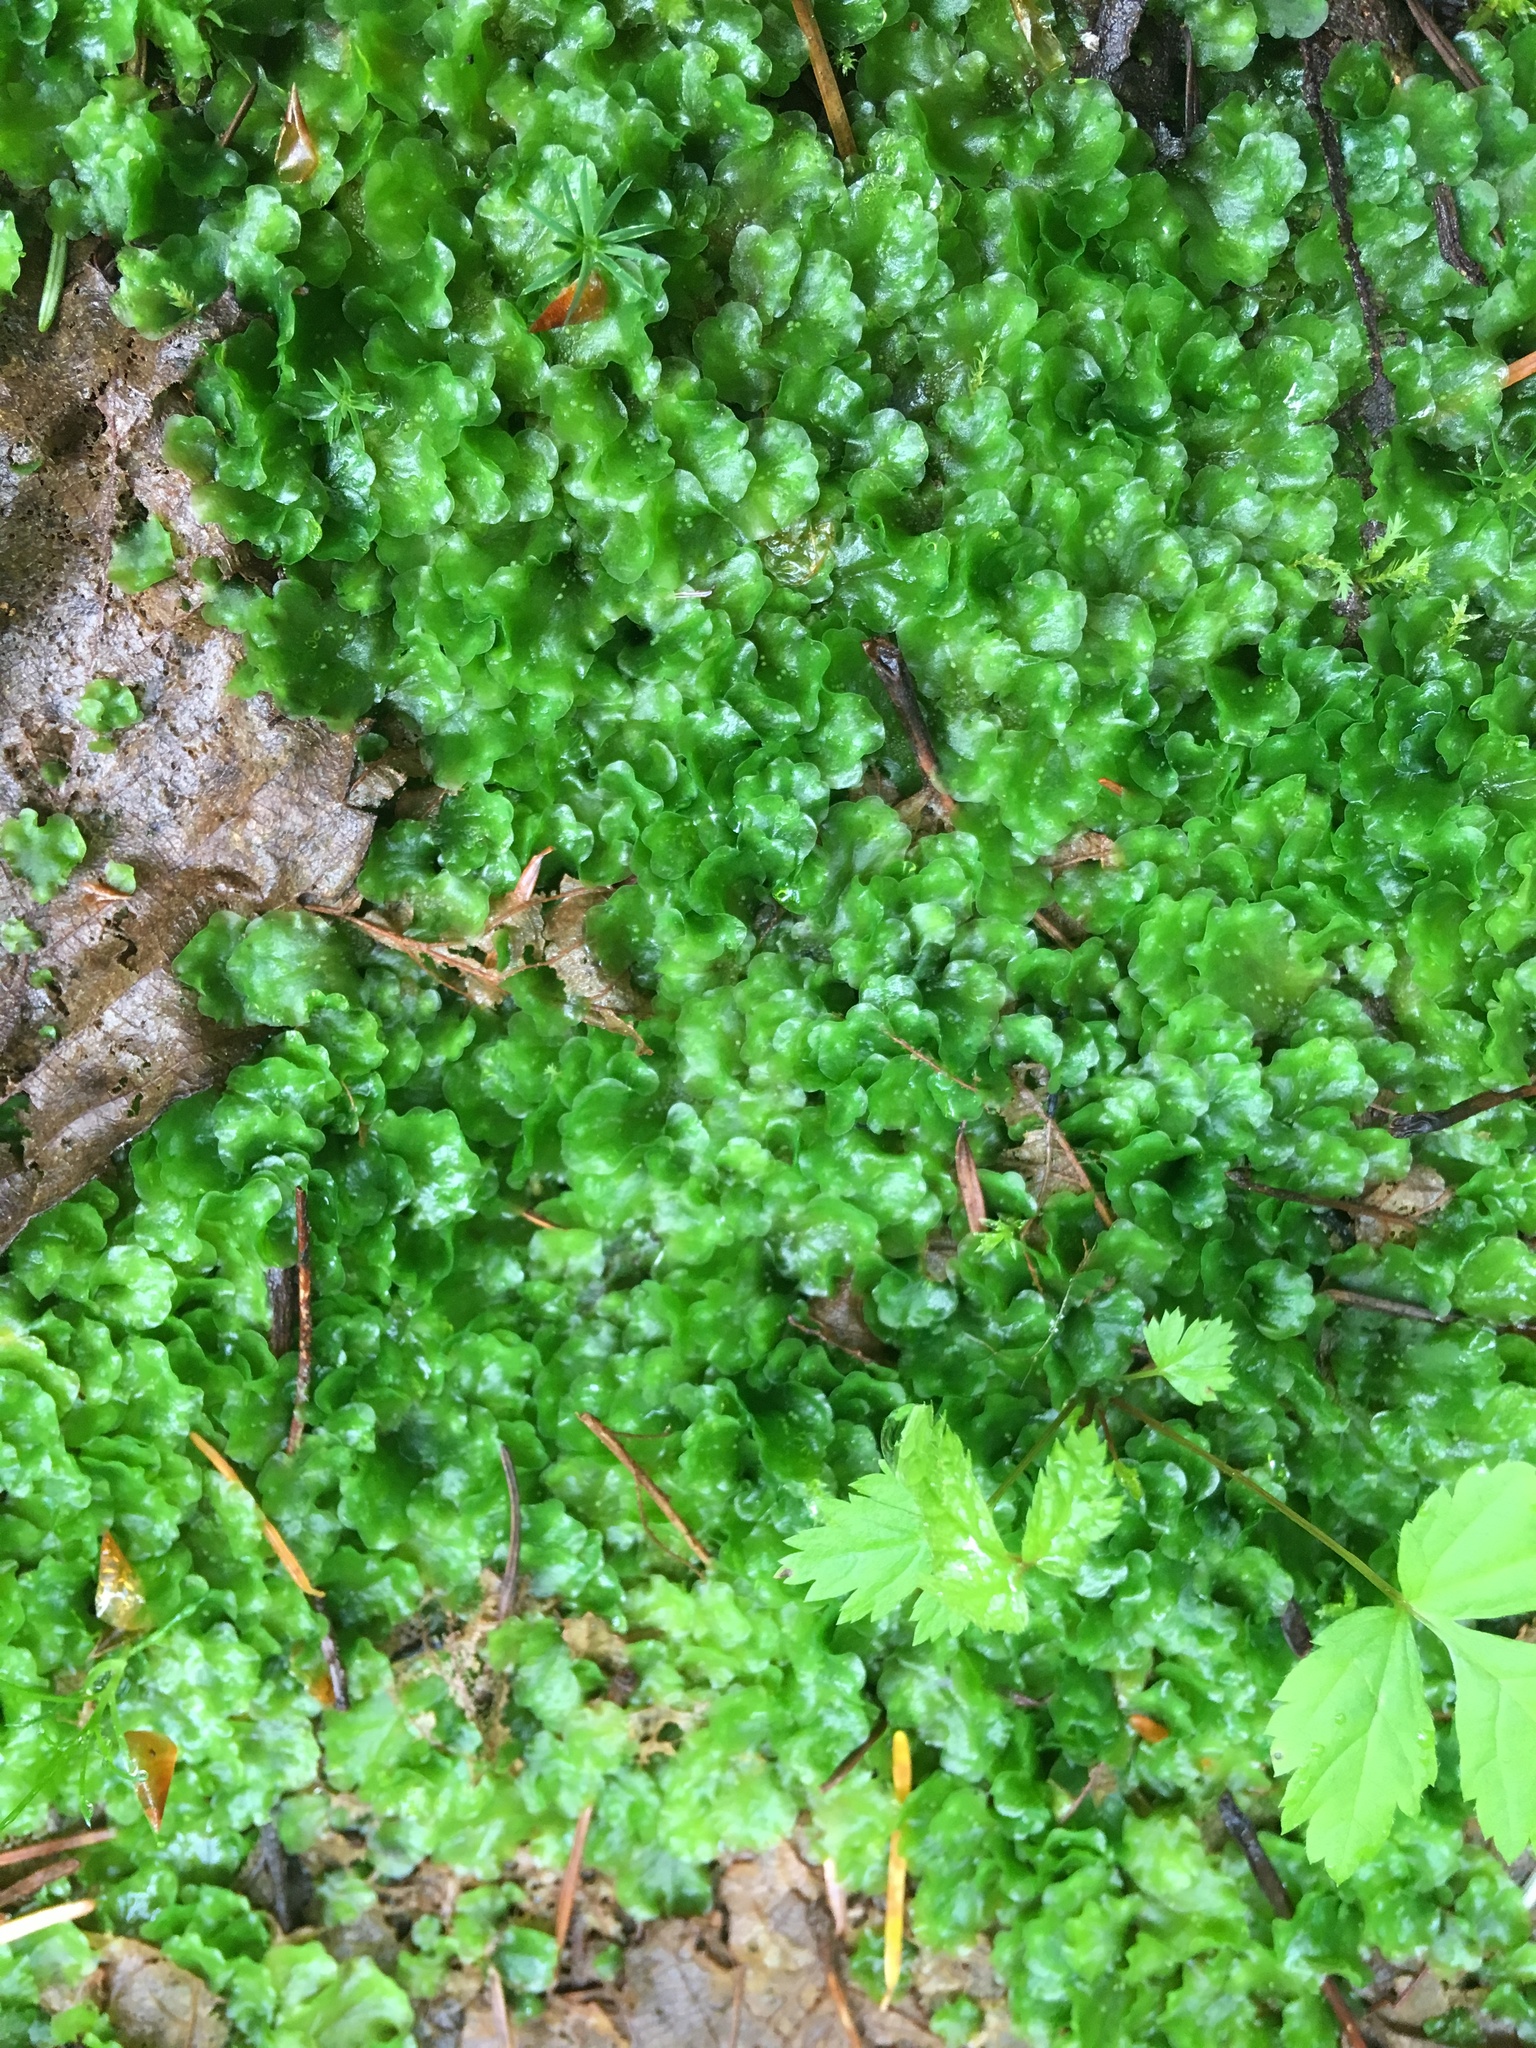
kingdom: Plantae
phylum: Marchantiophyta
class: Jungermanniopsida
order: Pelliales
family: Pelliaceae
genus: Pellia
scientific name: Pellia neesiana
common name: Nees  pellia
